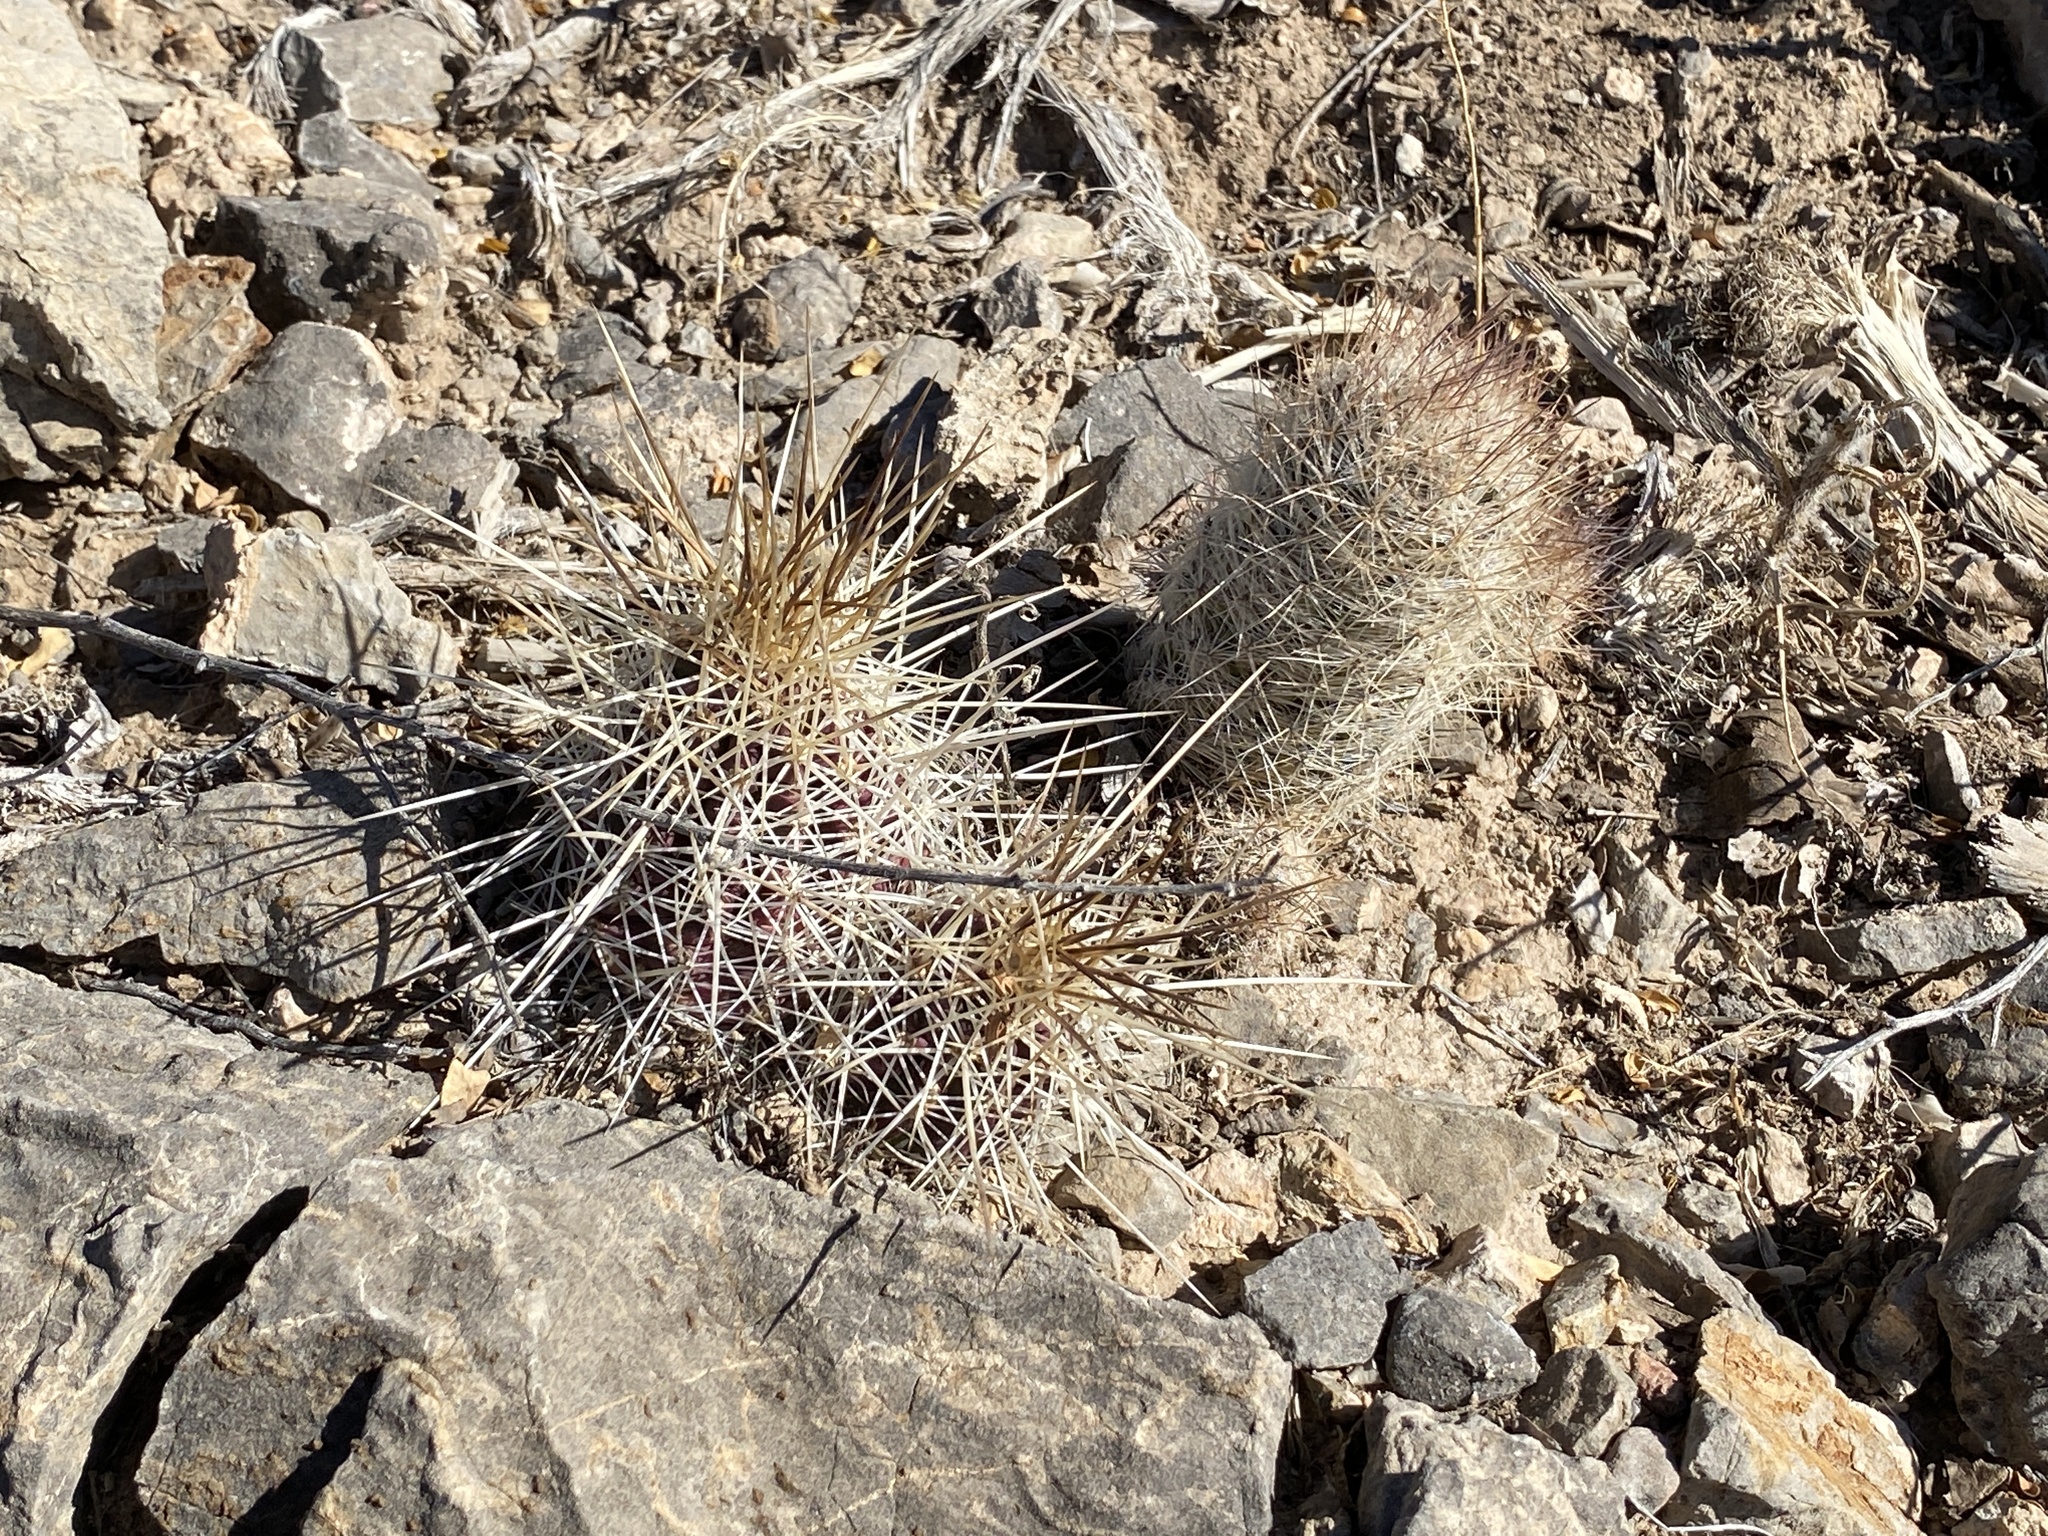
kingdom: Plantae
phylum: Tracheophyta
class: Magnoliopsida
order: Caryophyllales
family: Cactaceae
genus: Pelecyphora
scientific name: Pelecyphora tuberculosa
